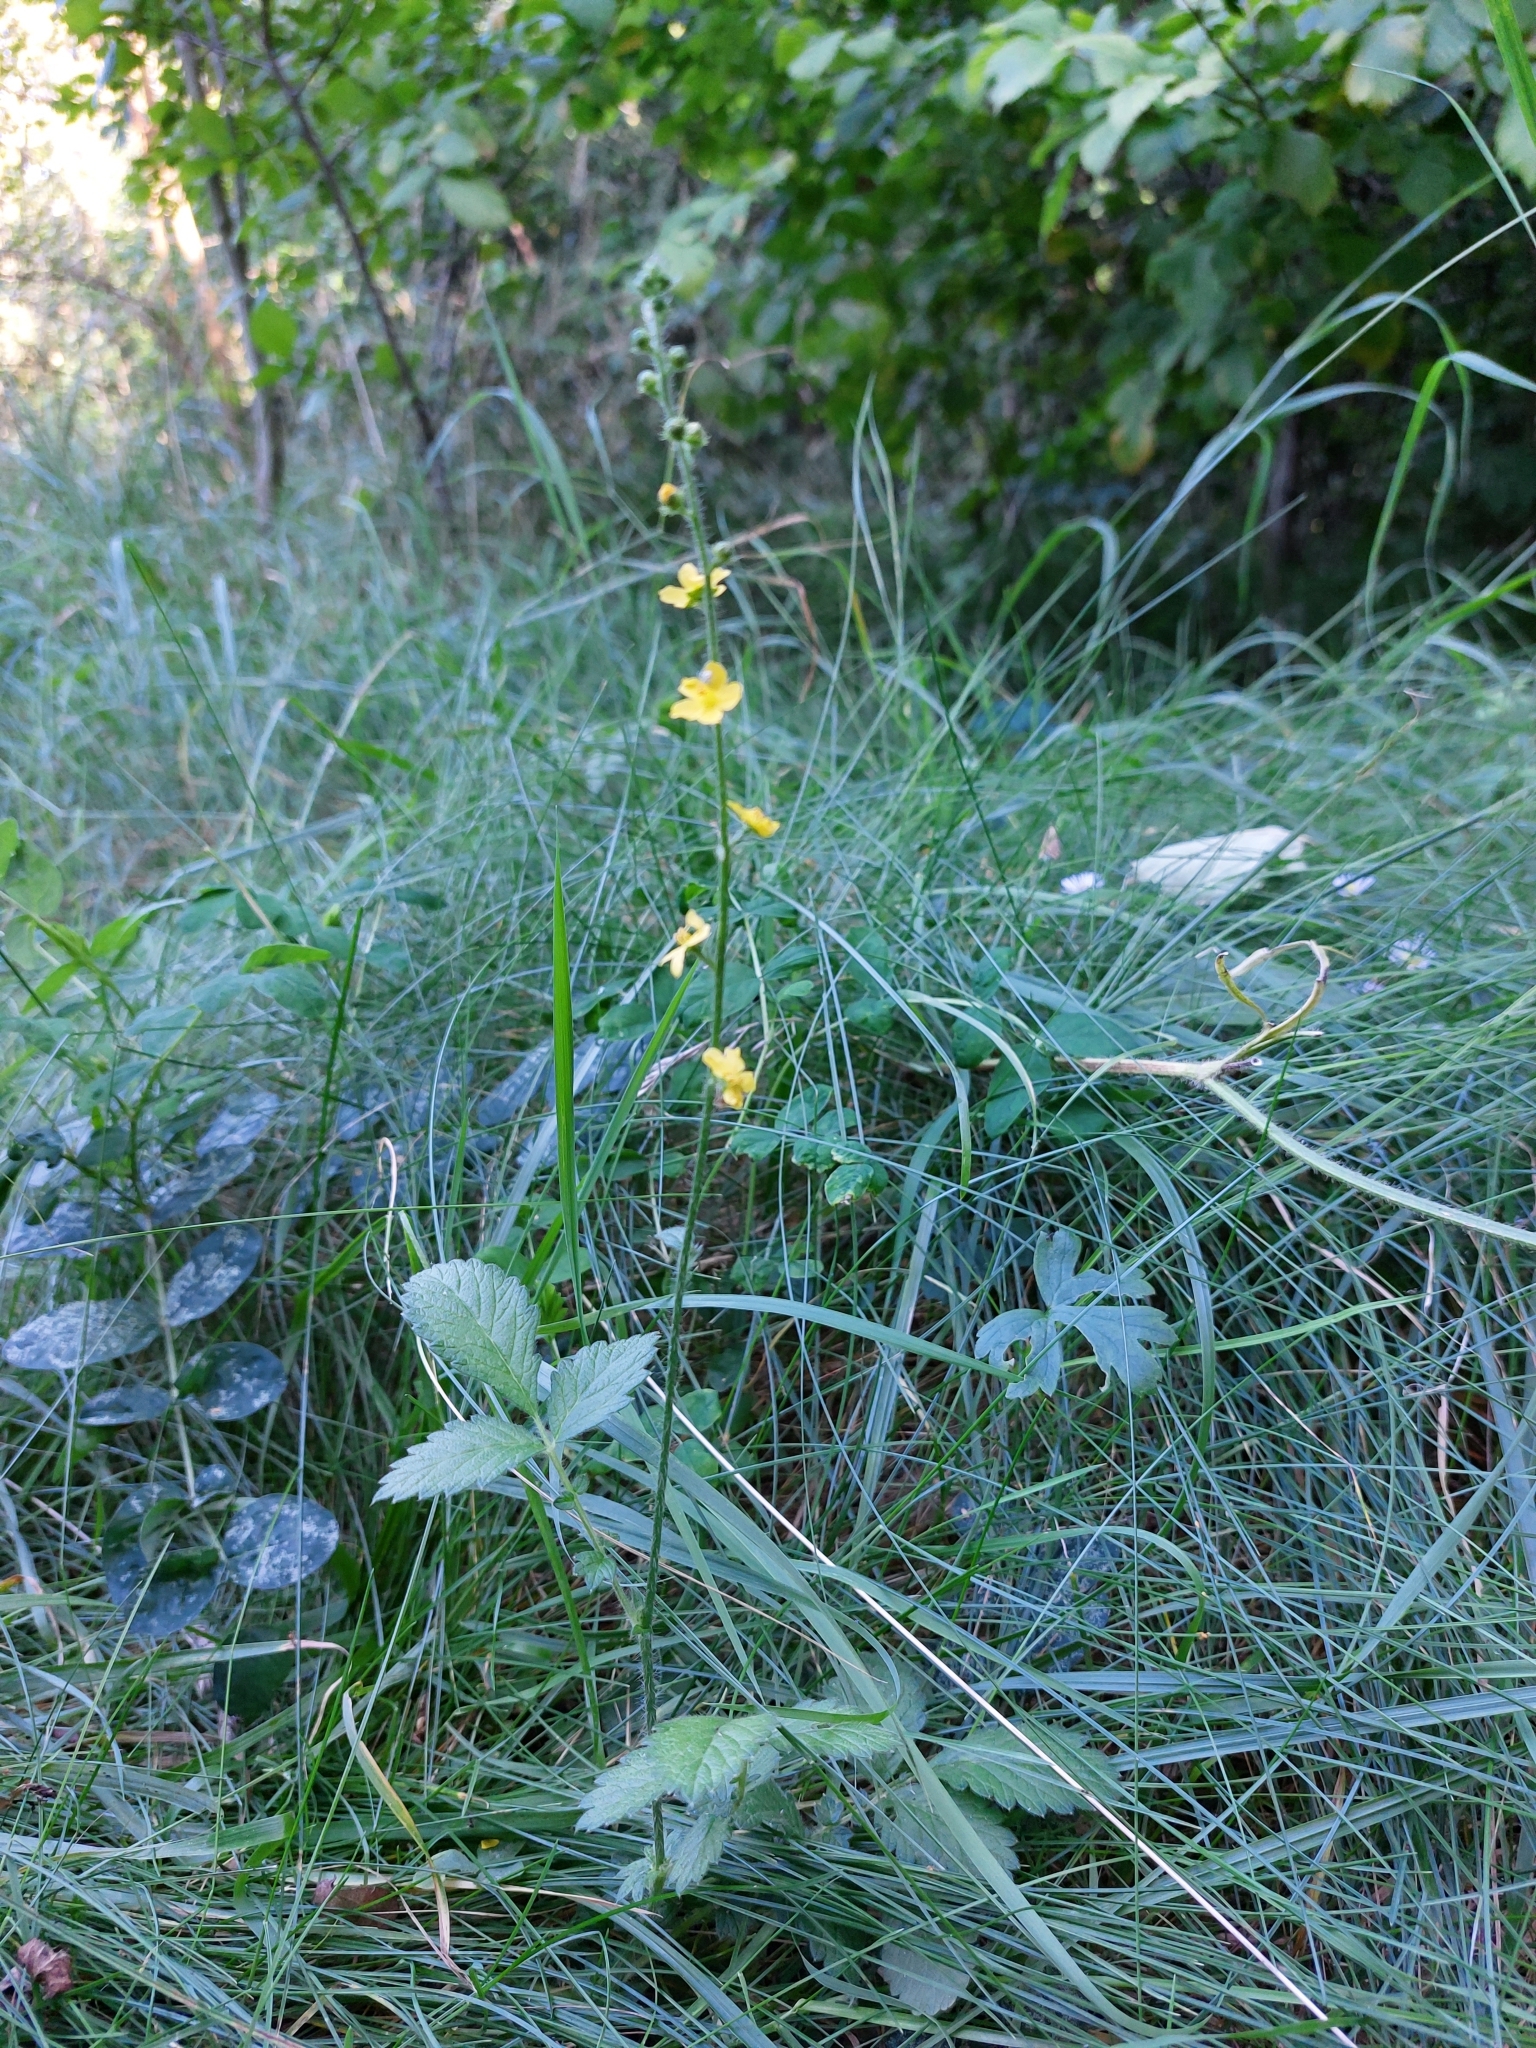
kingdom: Plantae
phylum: Tracheophyta
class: Magnoliopsida
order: Rosales
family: Rosaceae
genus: Agrimonia
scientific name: Agrimonia eupatoria
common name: Agrimony
